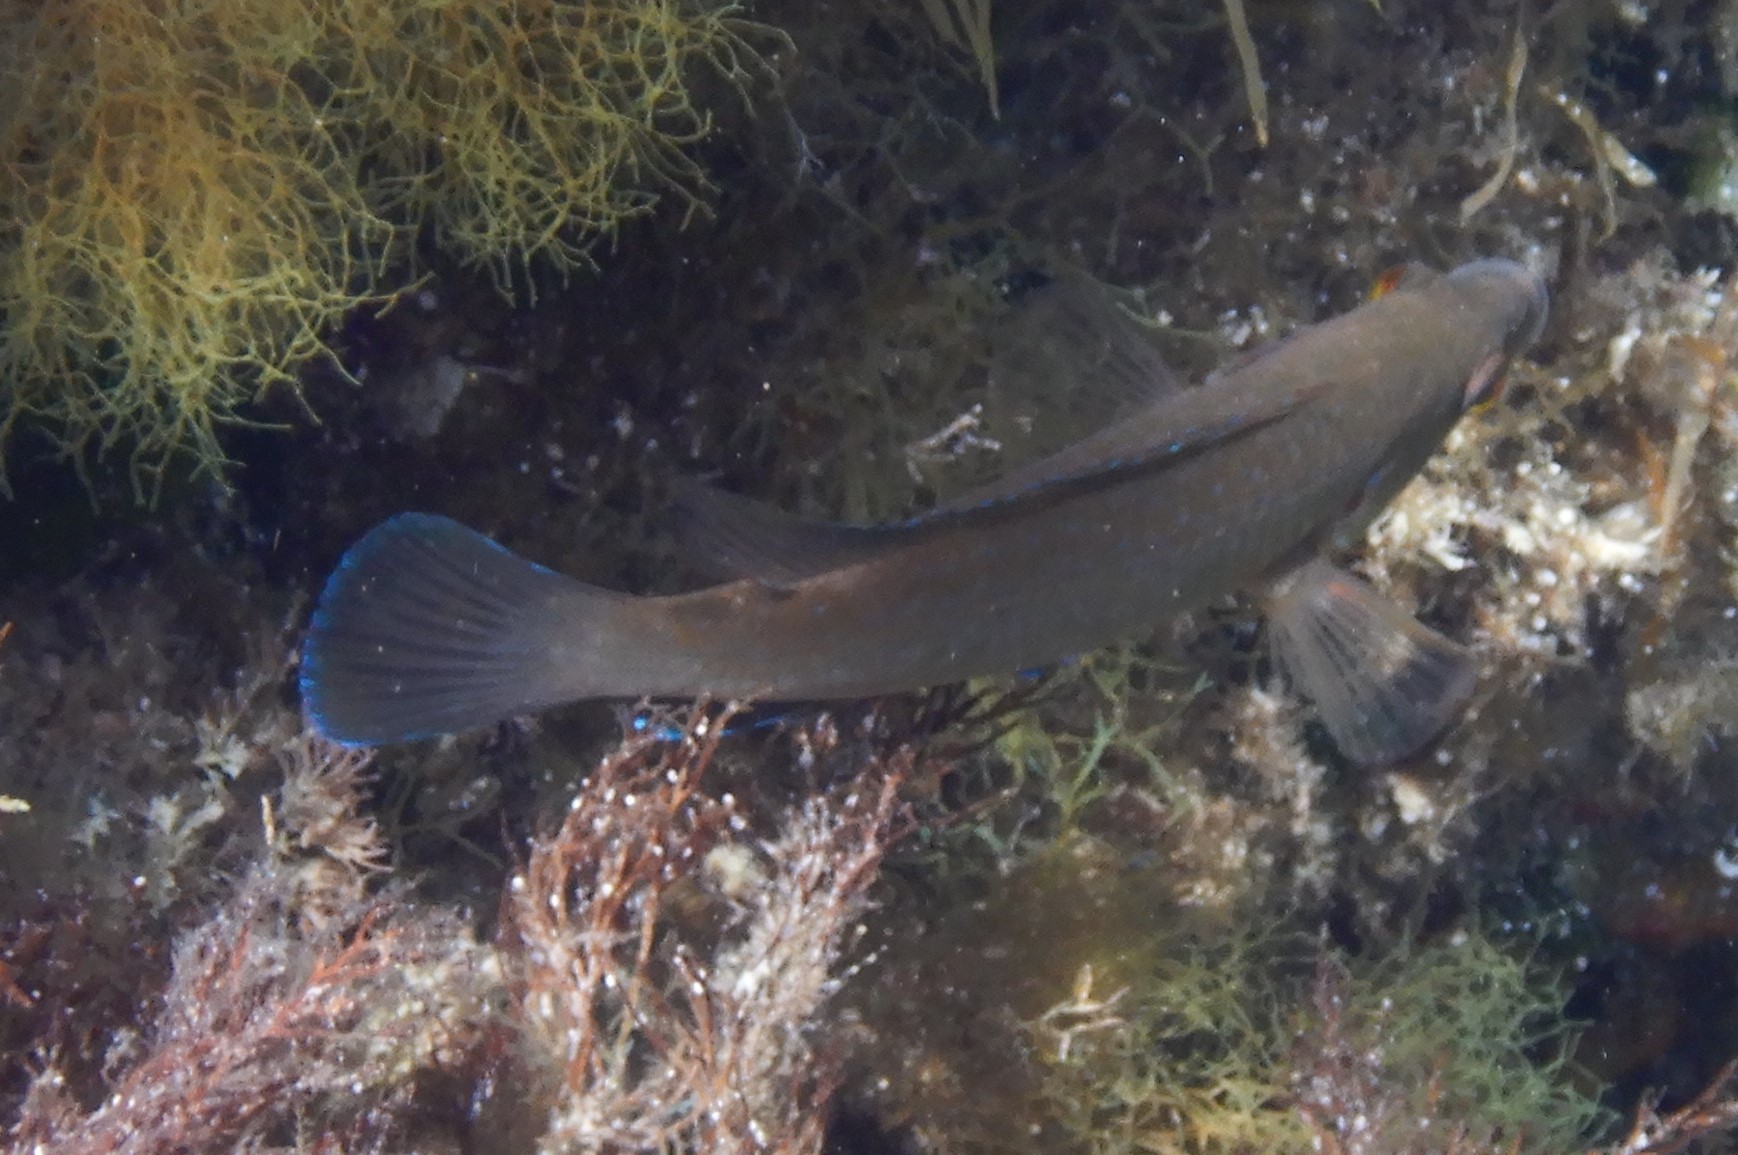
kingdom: Animalia
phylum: Chordata
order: Perciformes
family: Labridae
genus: Labrus
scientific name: Labrus merula
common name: Brown wrasse
